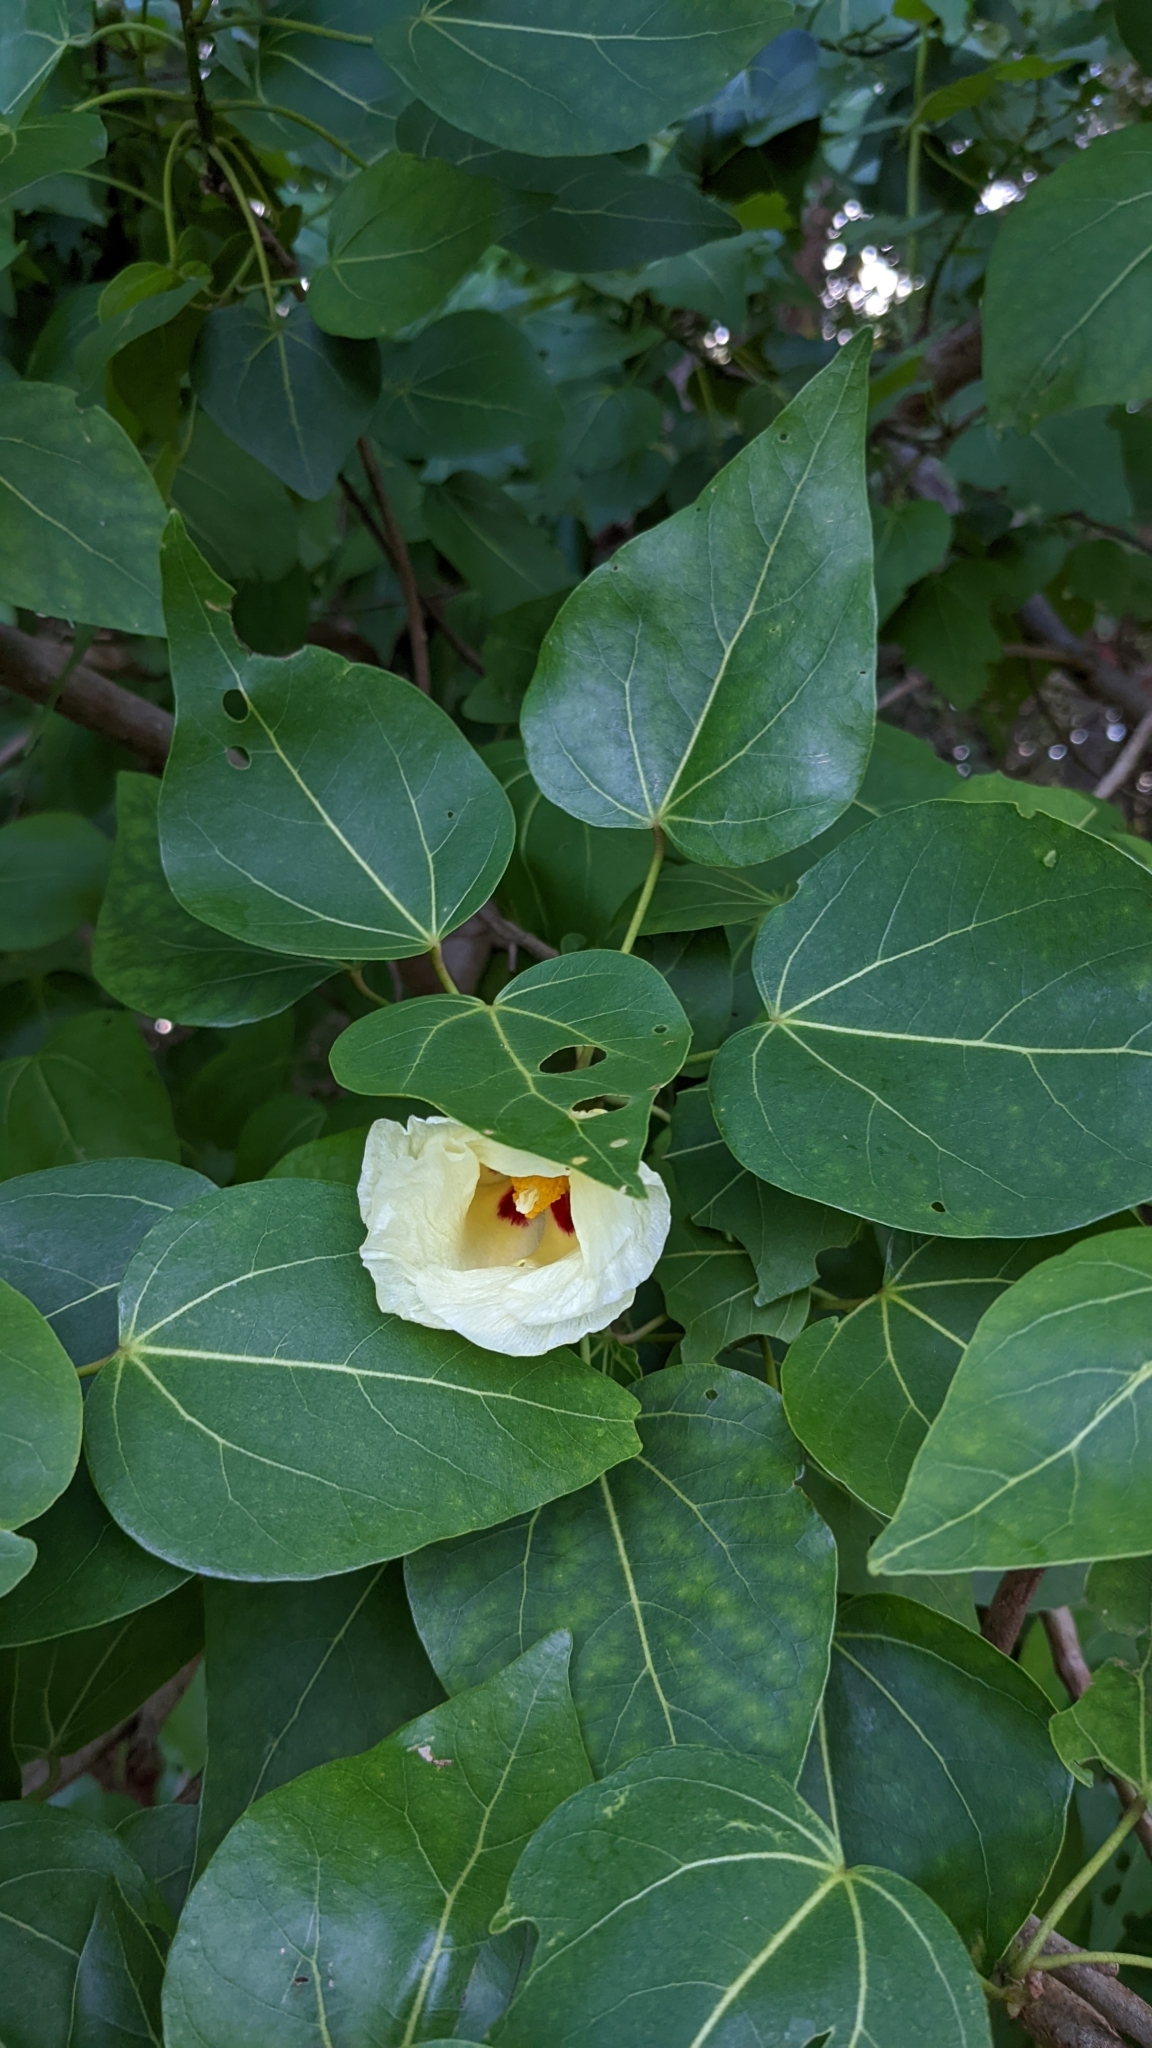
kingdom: Plantae
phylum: Tracheophyta
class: Magnoliopsida
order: Malvales
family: Malvaceae
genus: Thespesia
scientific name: Thespesia populnea
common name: Seaside mahoe
